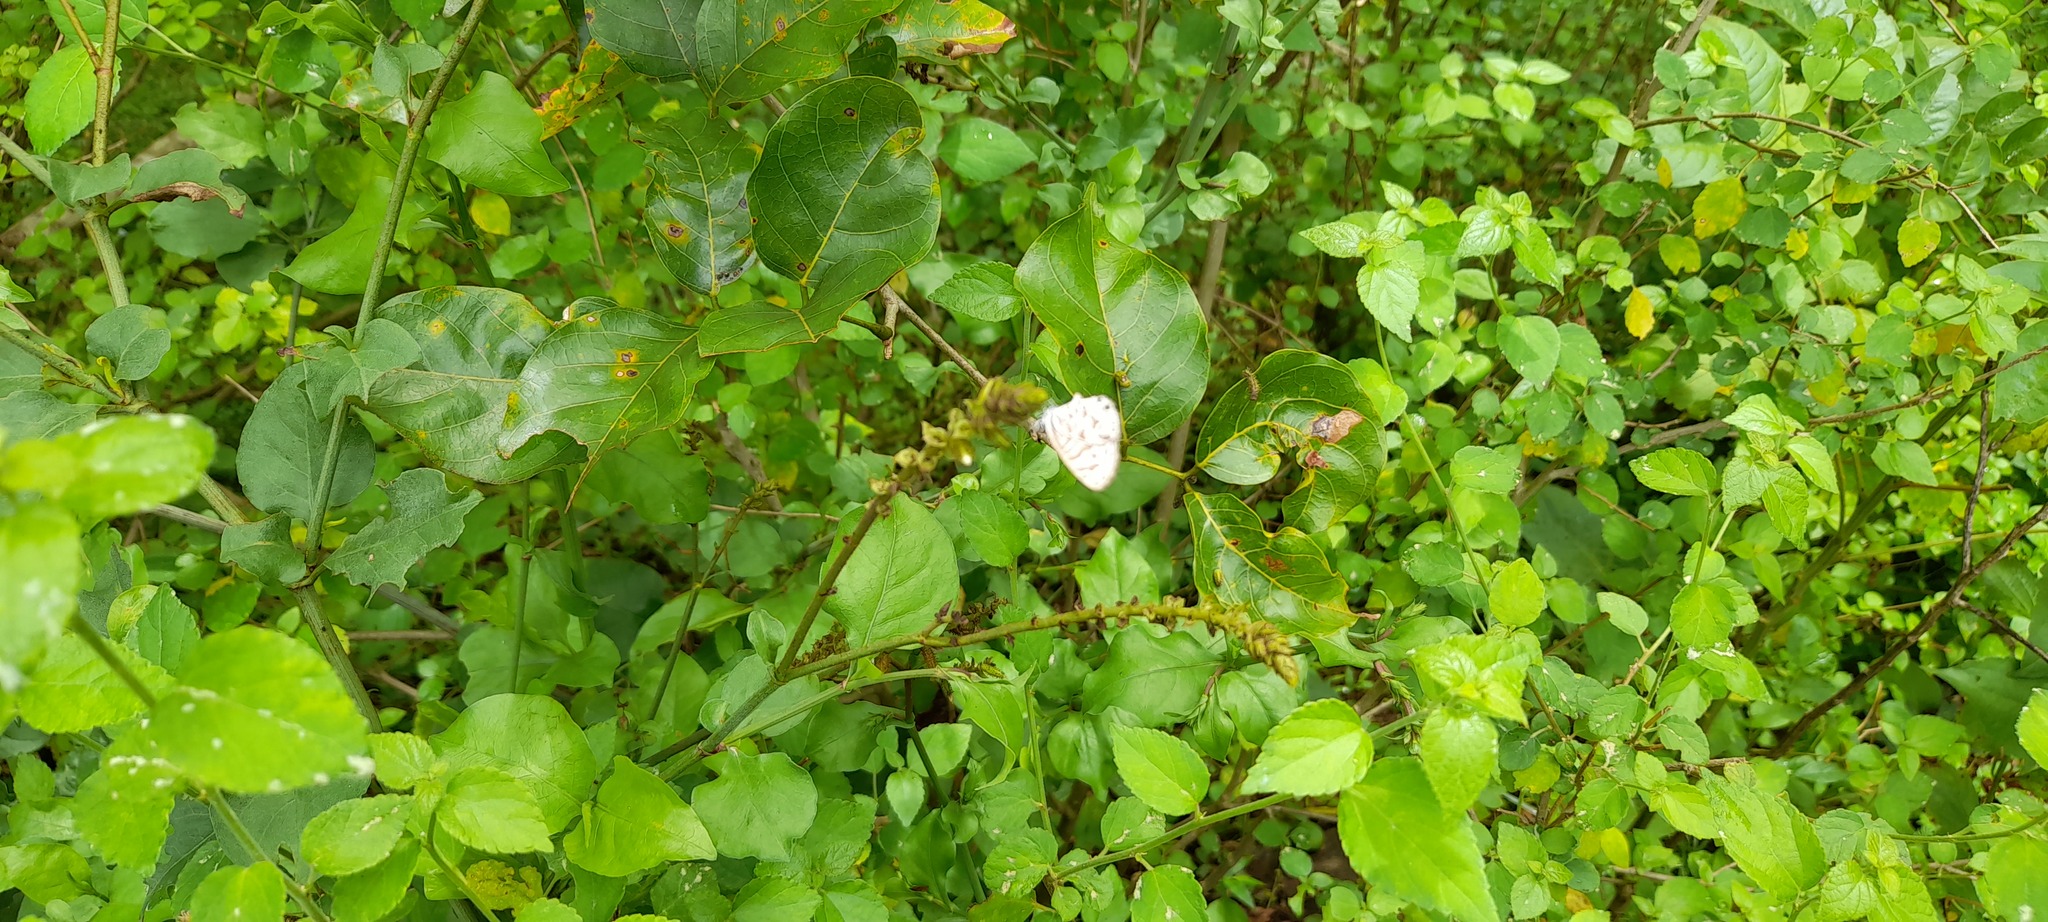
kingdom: Animalia
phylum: Arthropoda
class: Insecta
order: Lepidoptera
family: Lycaenidae
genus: Leptotes
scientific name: Leptotes plinius
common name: Zebra blue
